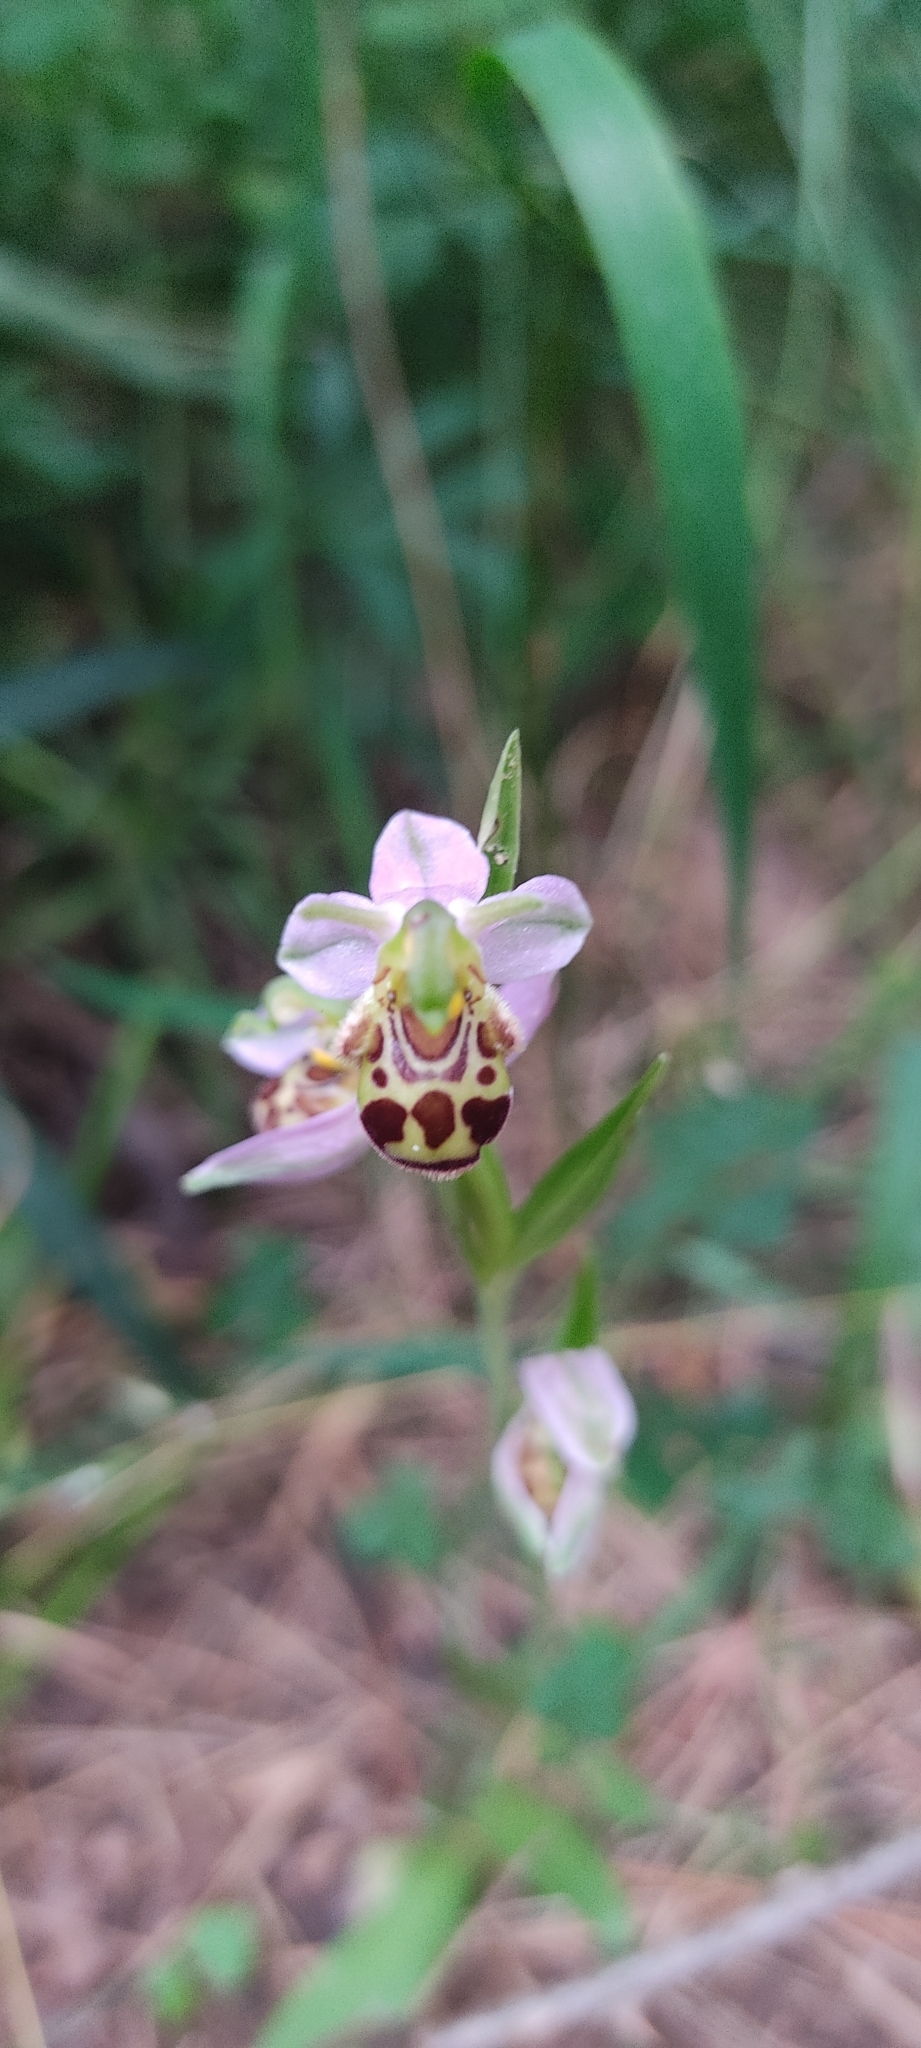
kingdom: Plantae
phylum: Tracheophyta
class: Liliopsida
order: Asparagales
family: Orchidaceae
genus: Ophrys
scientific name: Ophrys apifera
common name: Bee orchid
